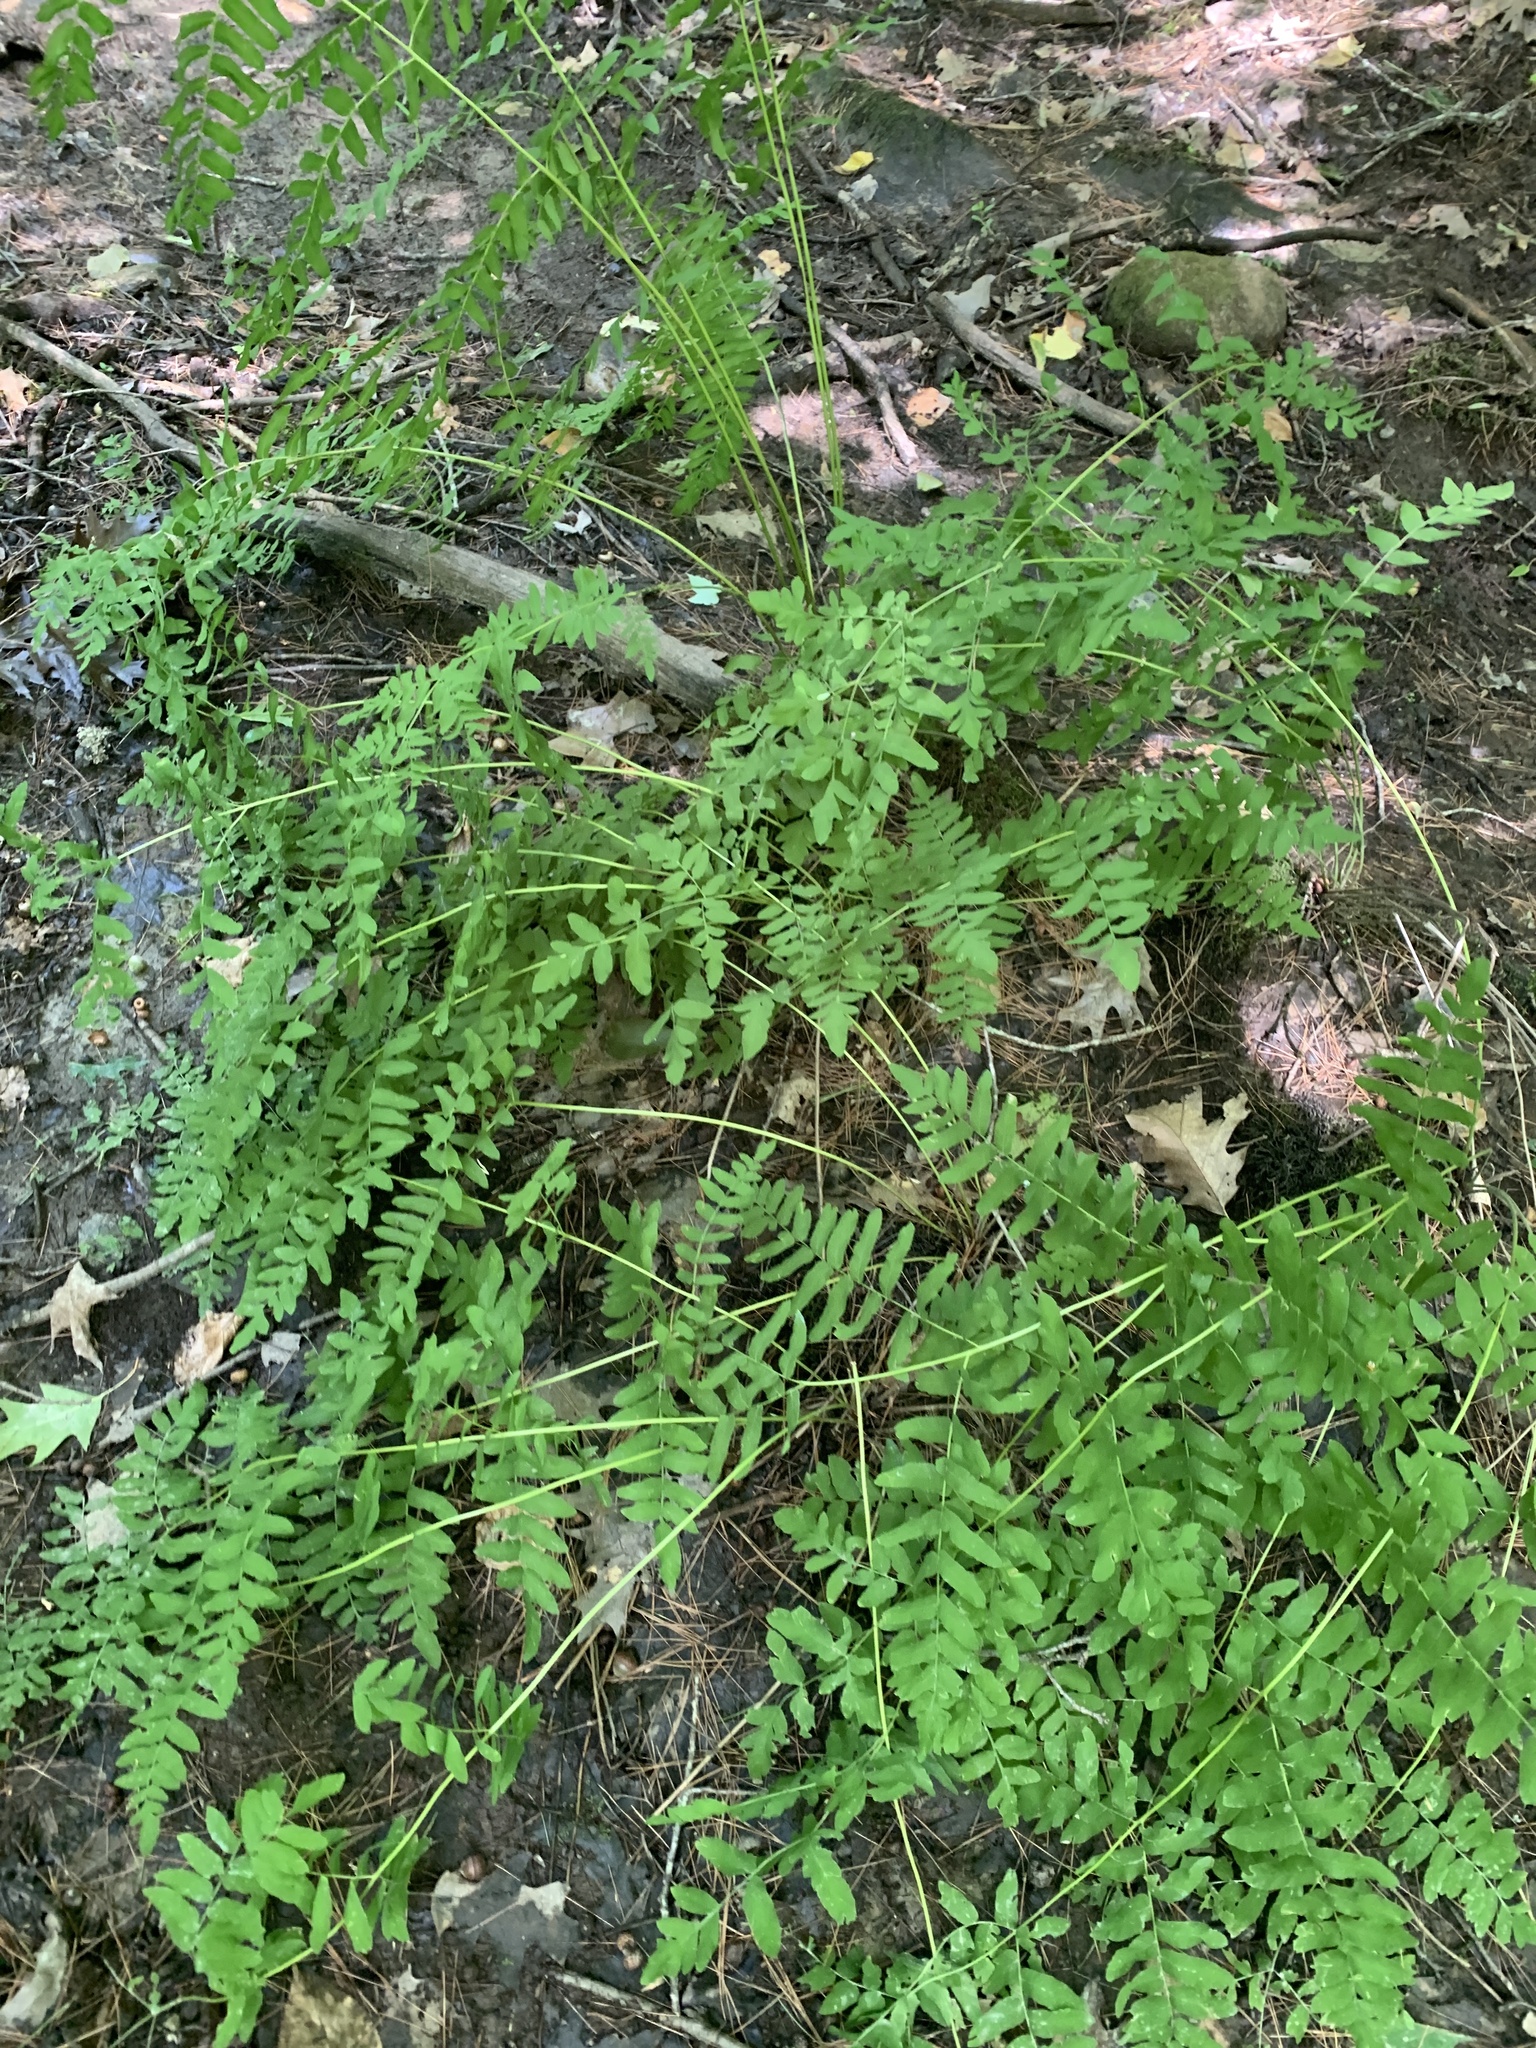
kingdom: Plantae
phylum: Tracheophyta
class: Polypodiopsida
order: Osmundales
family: Osmundaceae
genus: Osmunda
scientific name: Osmunda spectabilis
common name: American royal fern
